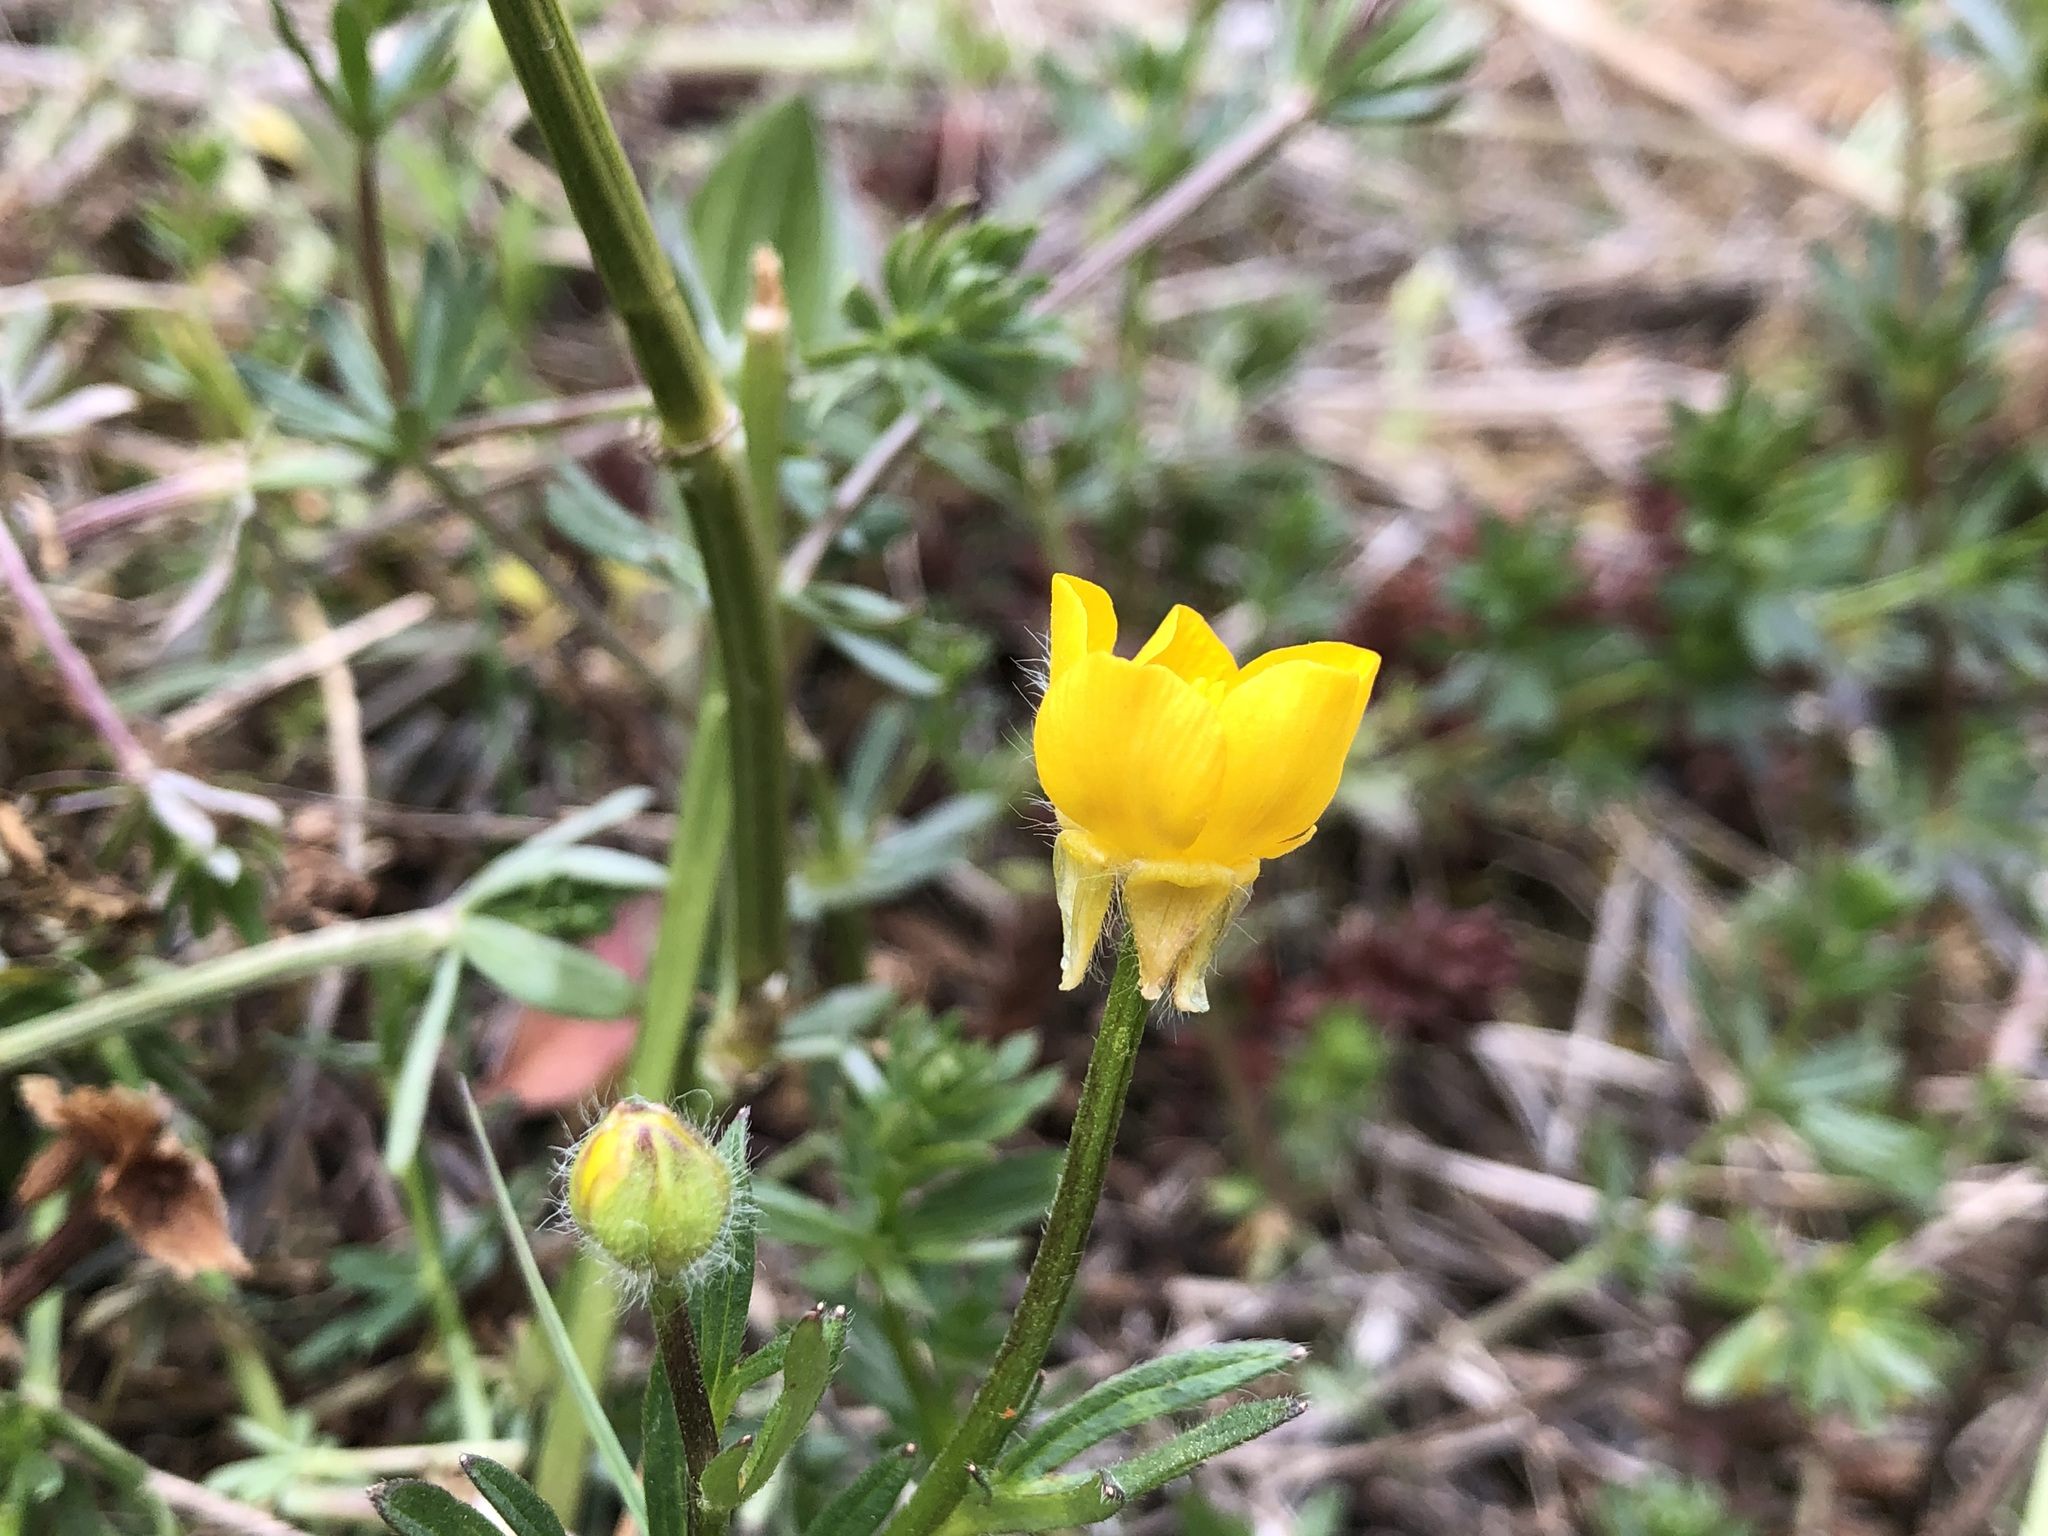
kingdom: Plantae
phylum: Tracheophyta
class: Magnoliopsida
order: Ranunculales
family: Ranunculaceae
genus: Ranunculus
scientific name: Ranunculus bulbosus
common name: Bulbous buttercup
